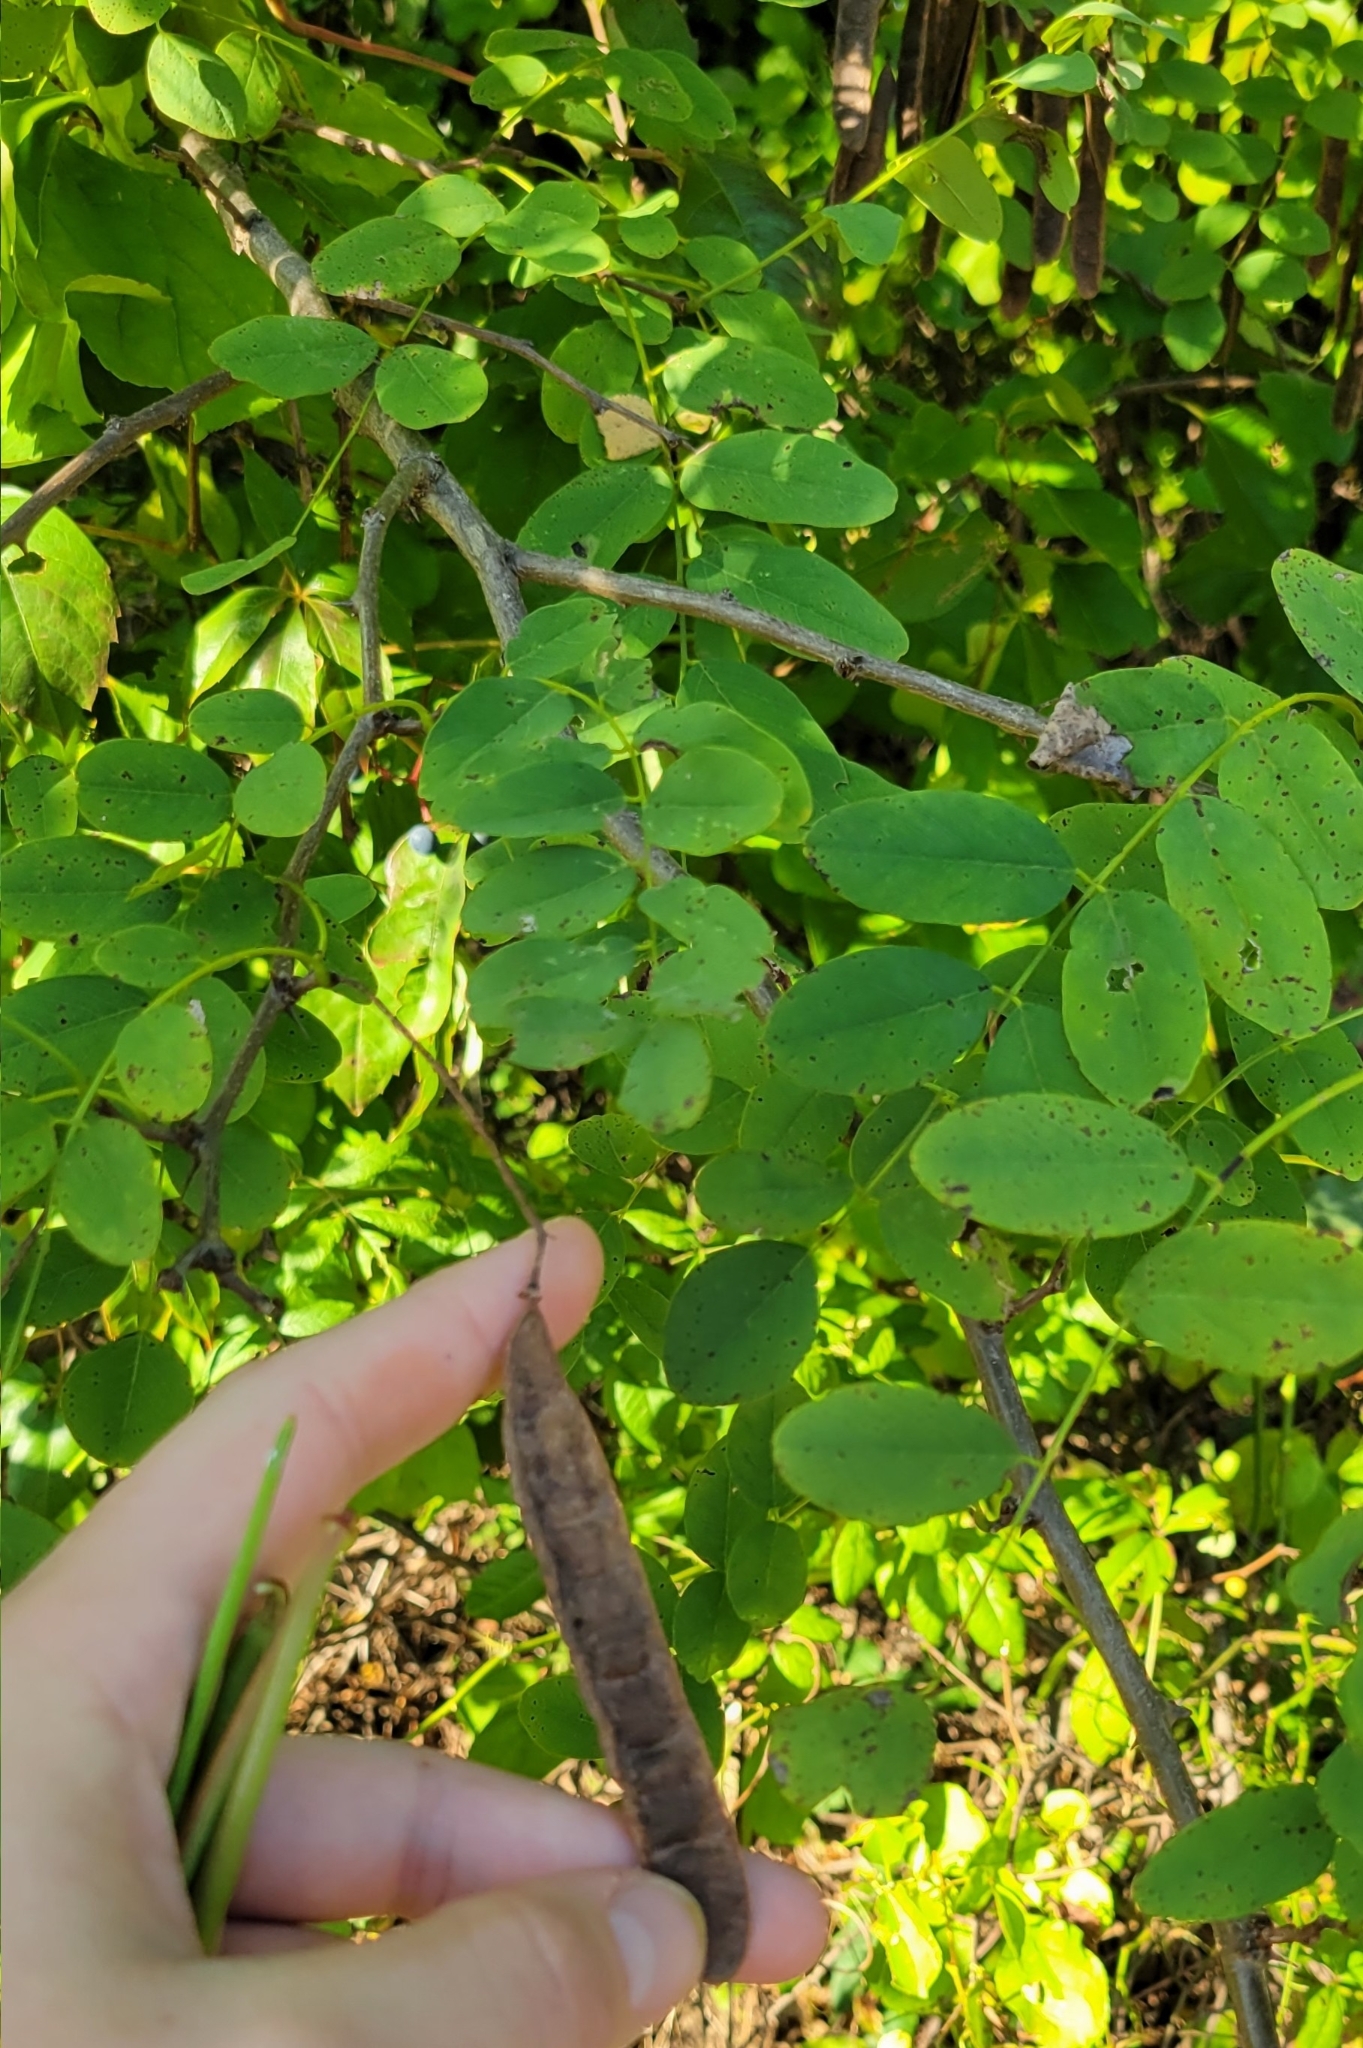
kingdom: Plantae
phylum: Tracheophyta
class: Magnoliopsida
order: Fabales
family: Fabaceae
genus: Robinia
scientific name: Robinia pseudoacacia
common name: Black locust
